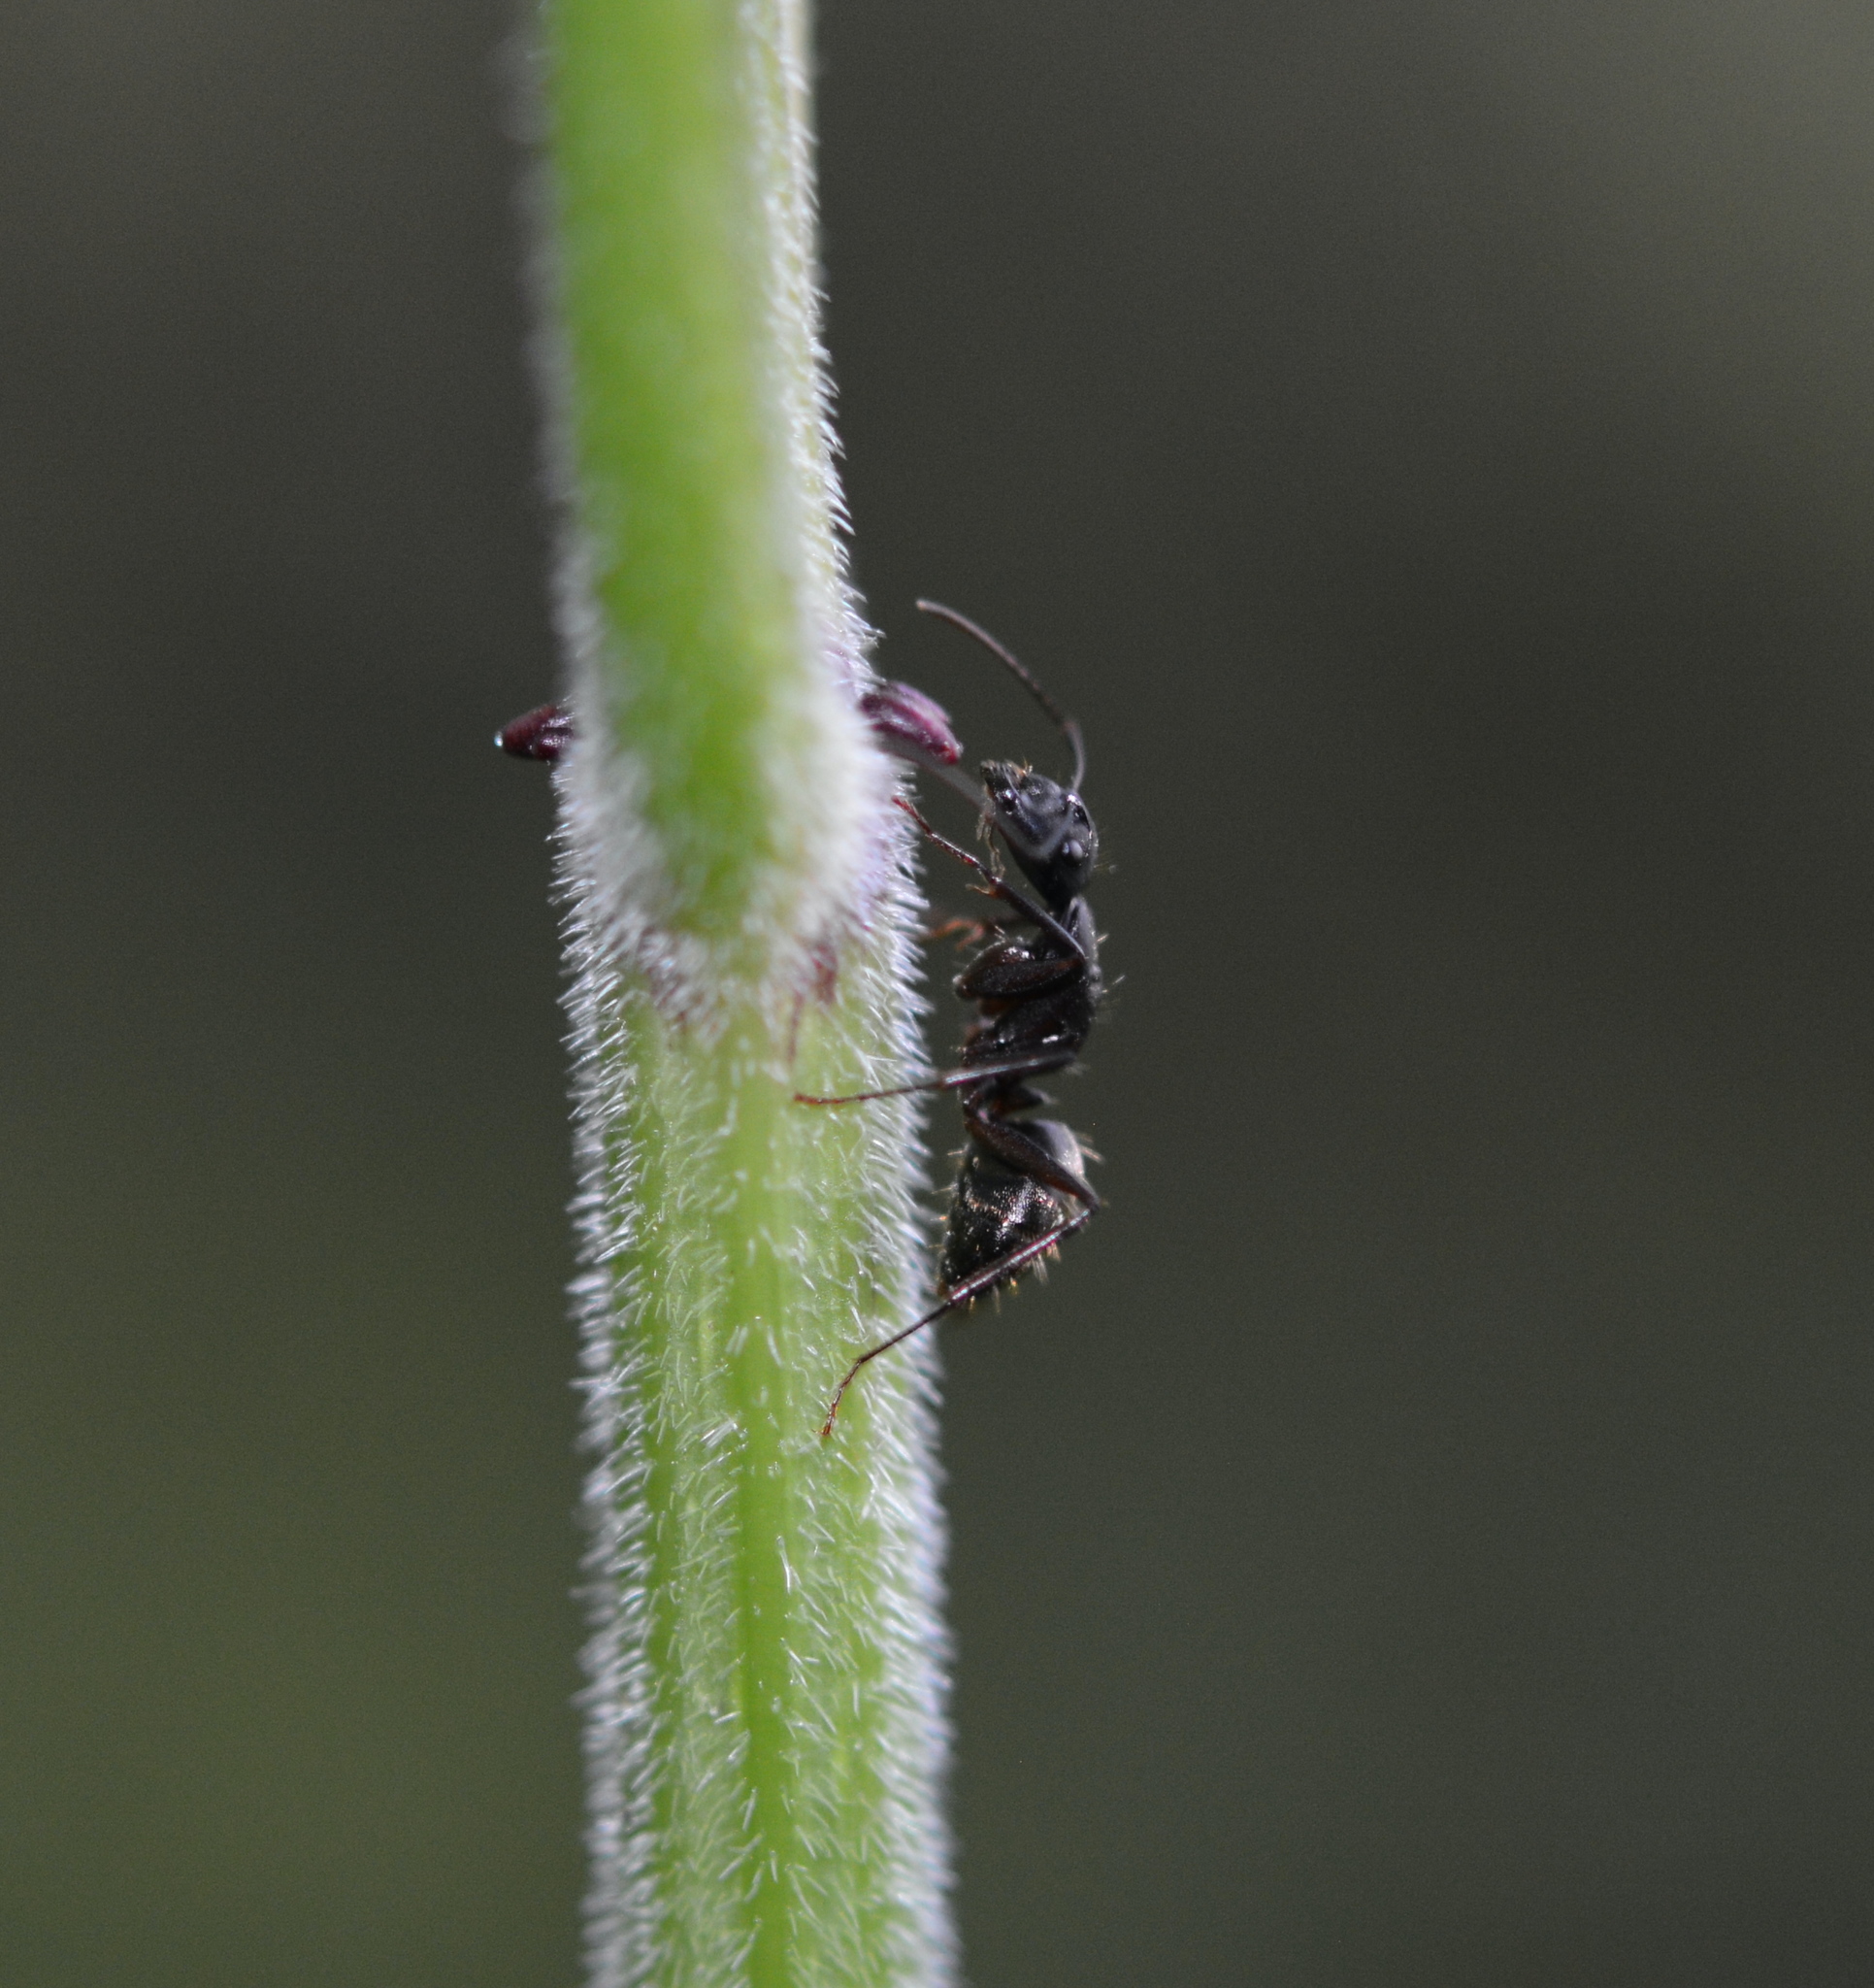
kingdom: Animalia
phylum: Arthropoda
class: Insecta
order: Hymenoptera
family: Formicidae
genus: Camponotus
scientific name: Camponotus pennsylvanicus
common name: Black carpenter ant
